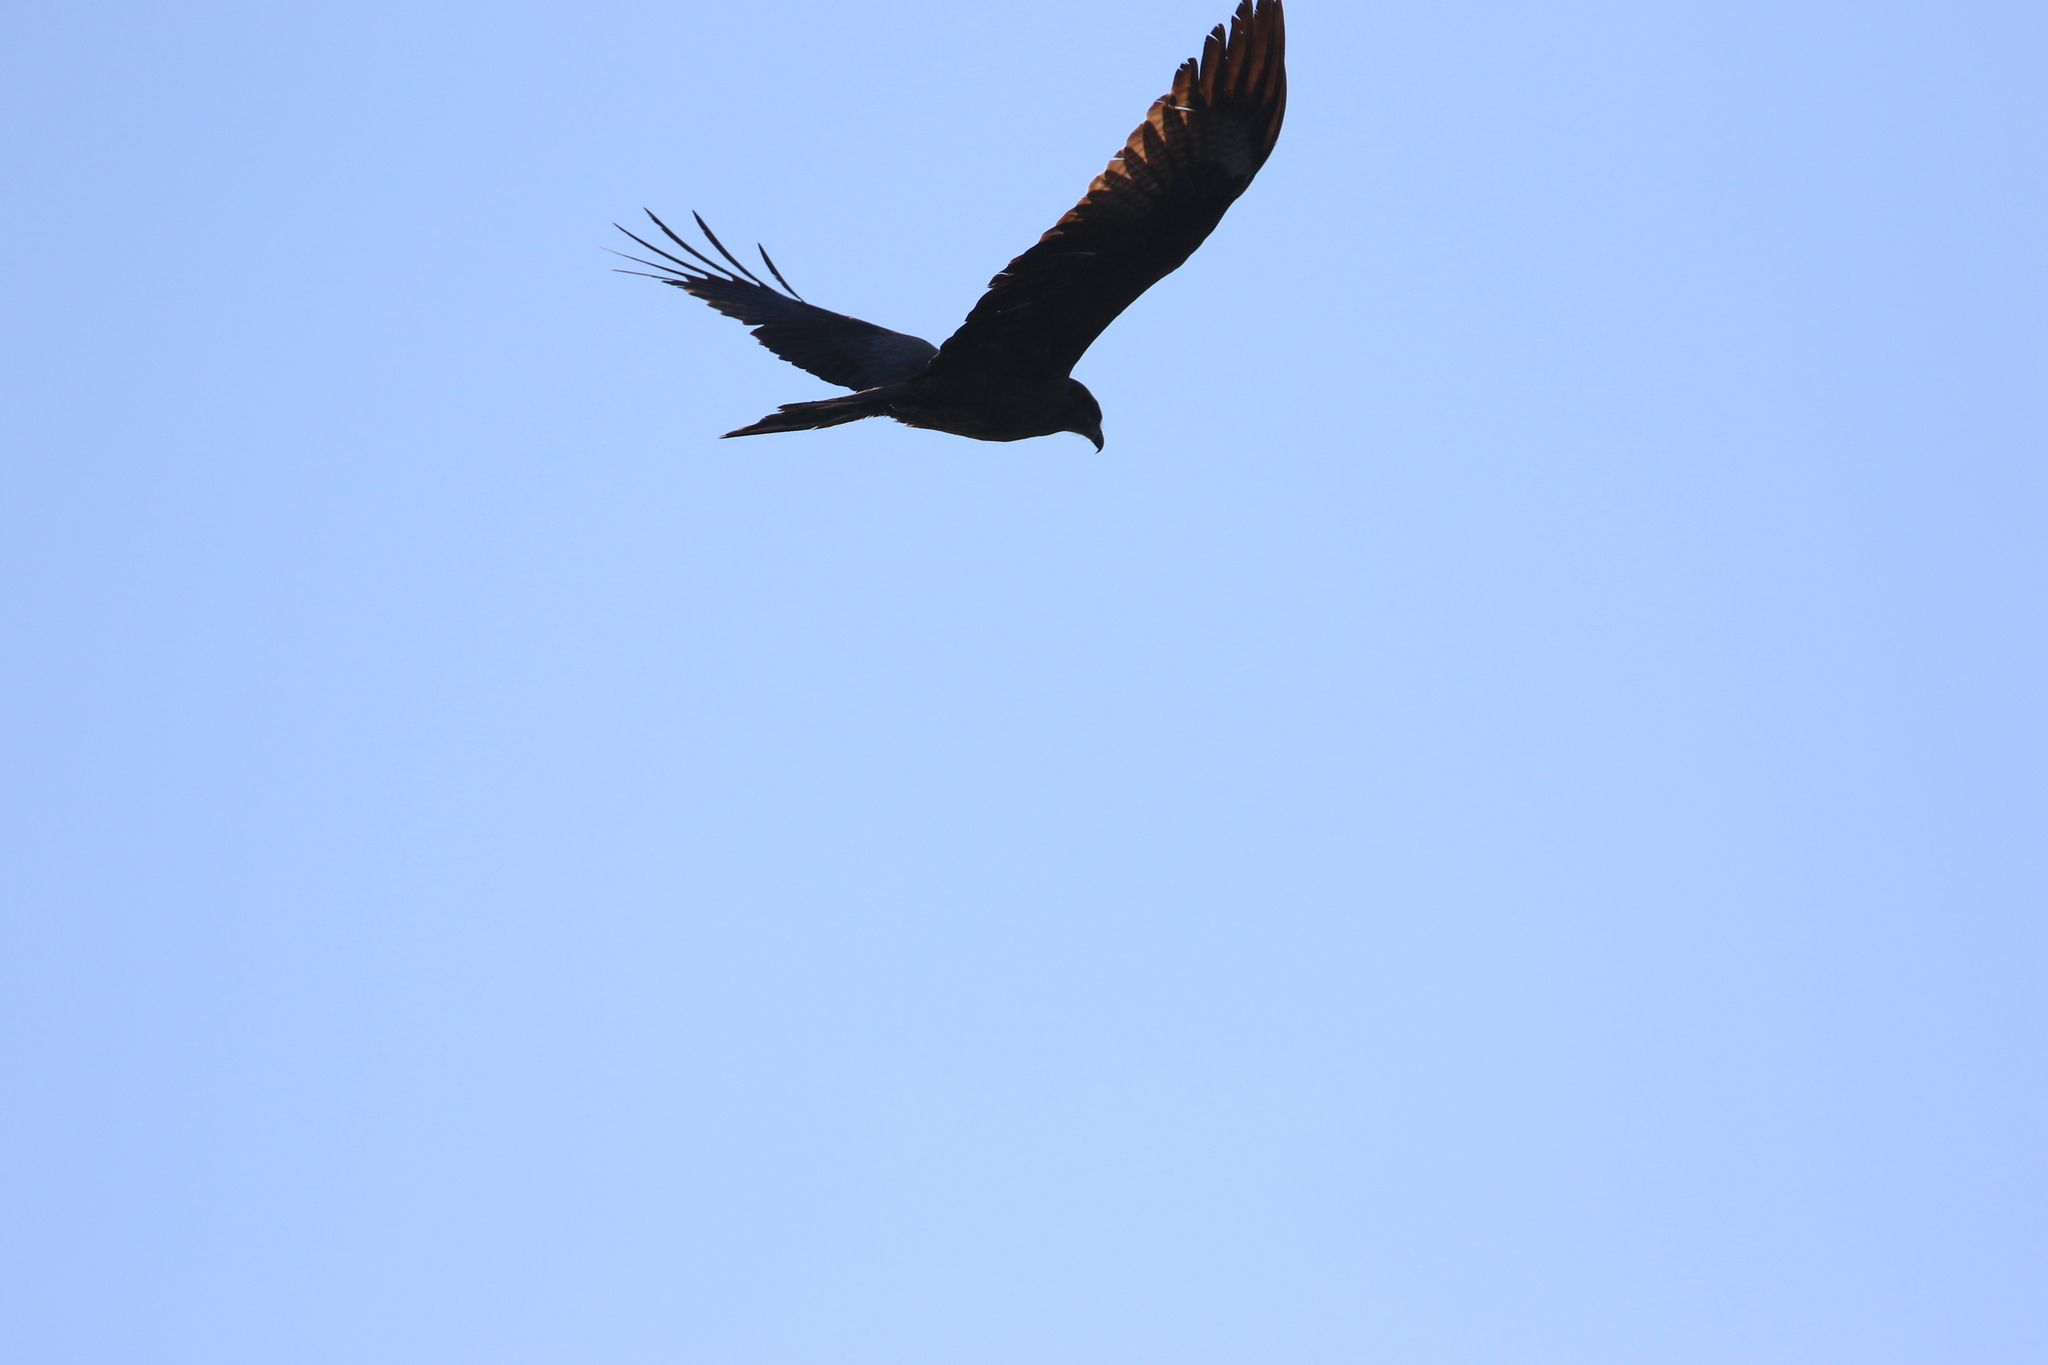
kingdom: Animalia
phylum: Chordata
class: Aves
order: Accipitriformes
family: Accipitridae
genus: Milvus
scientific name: Milvus migrans
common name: Black kite
